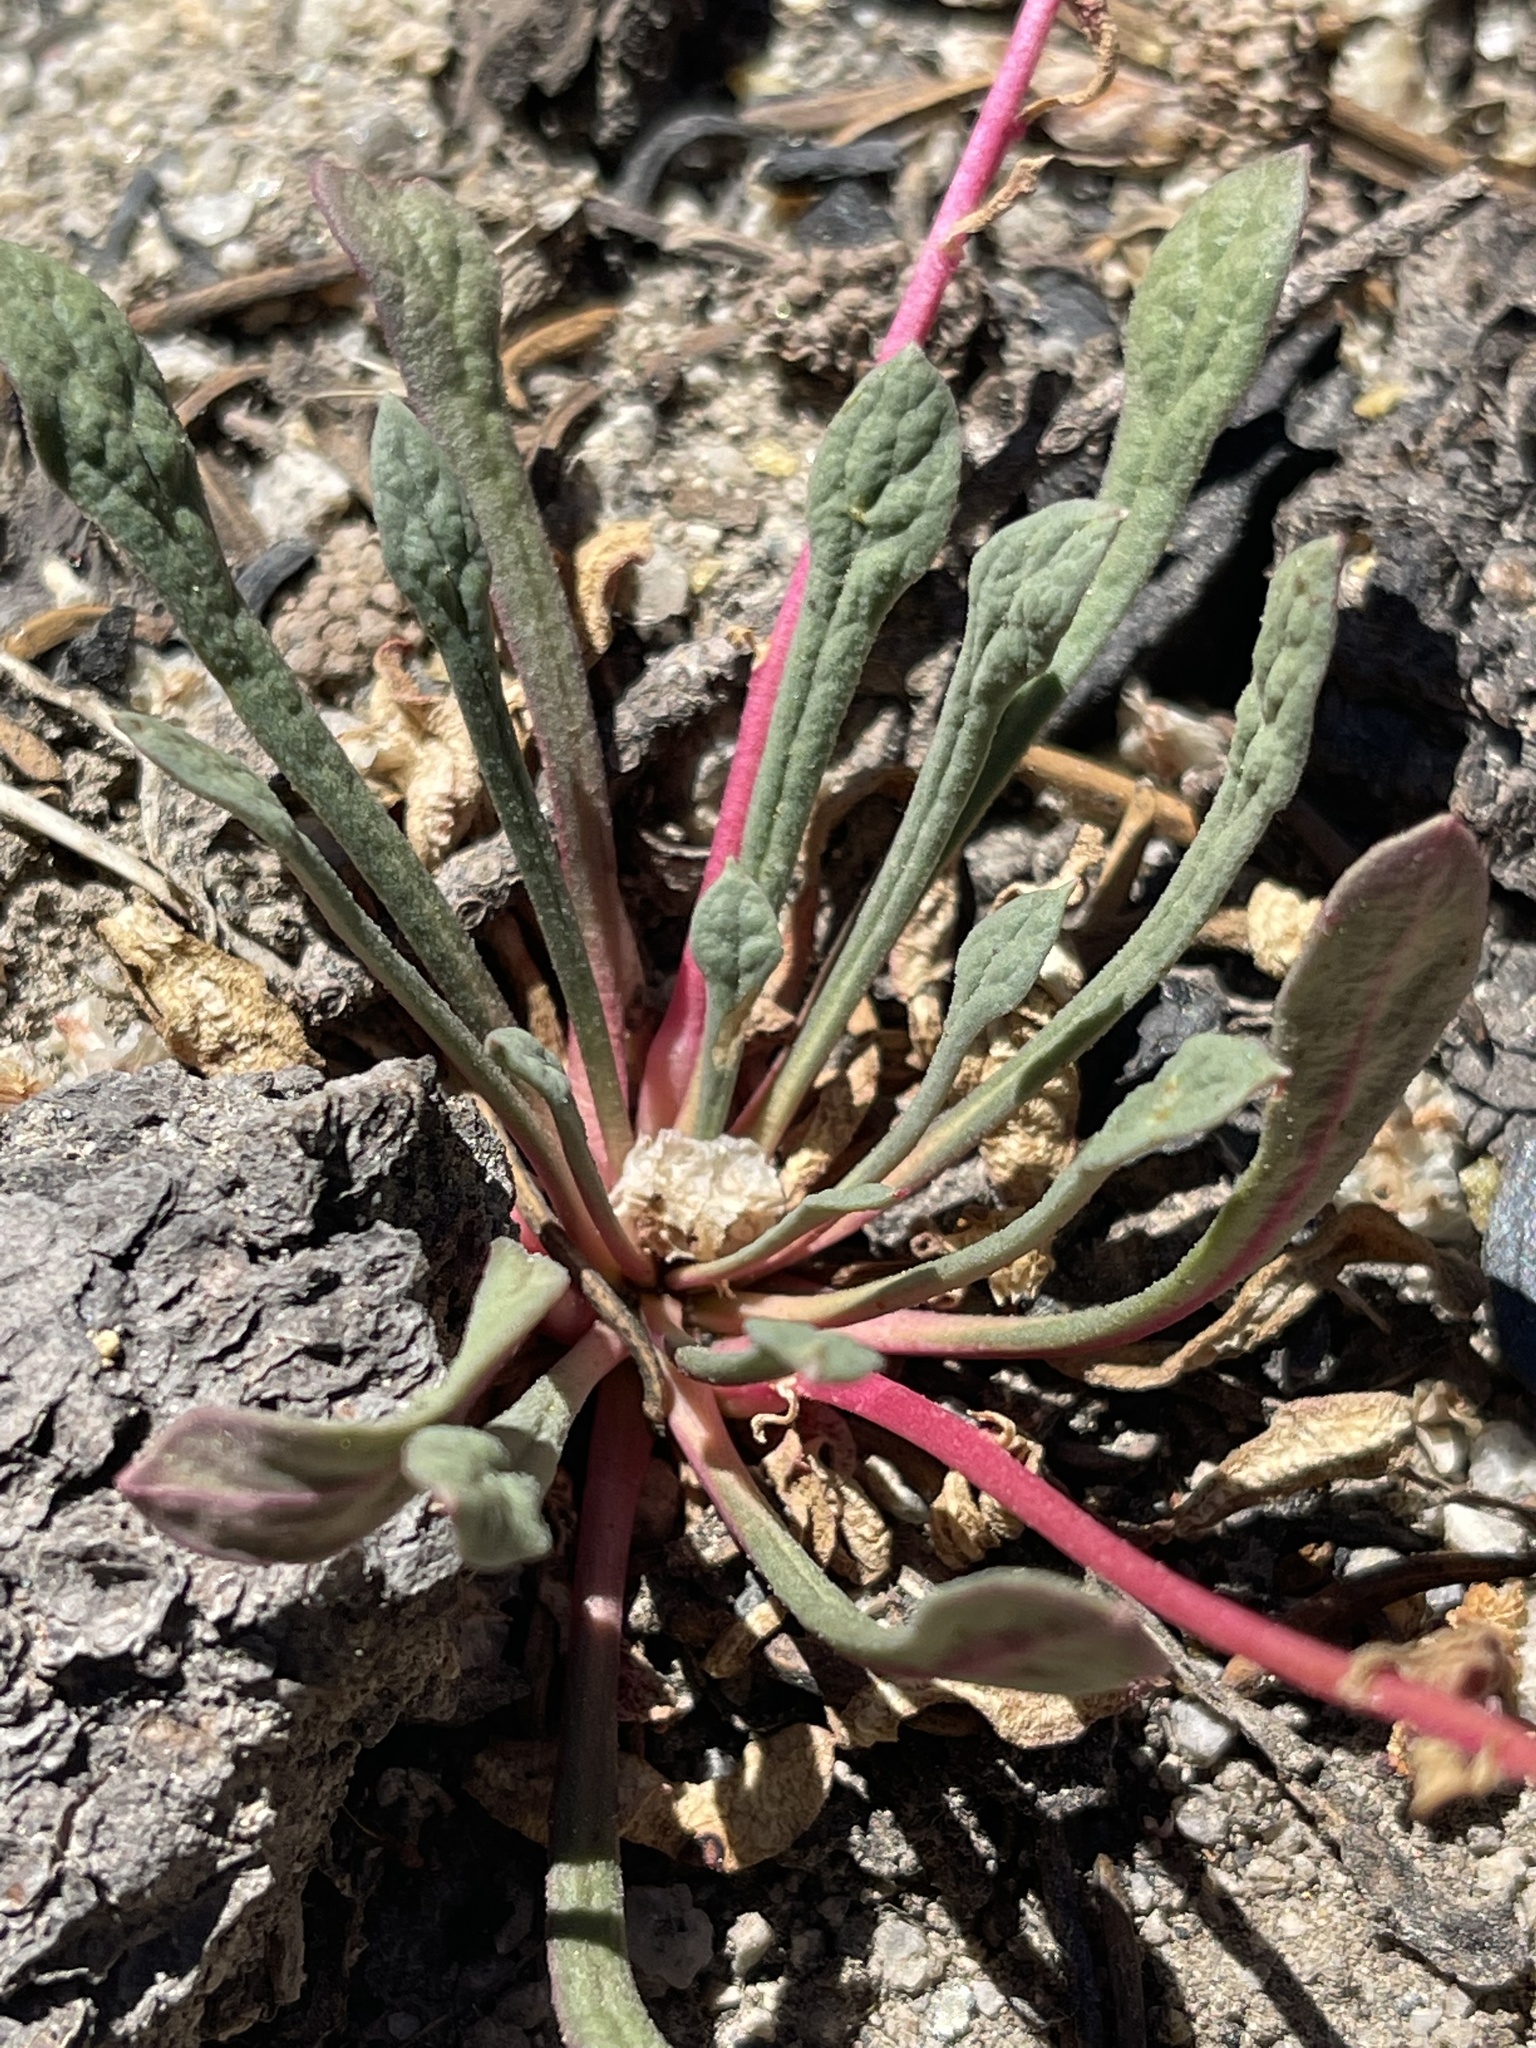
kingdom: Plantae
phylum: Tracheophyta
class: Magnoliopsida
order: Caryophyllales
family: Montiaceae
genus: Calyptridium
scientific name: Calyptridium monospermum
